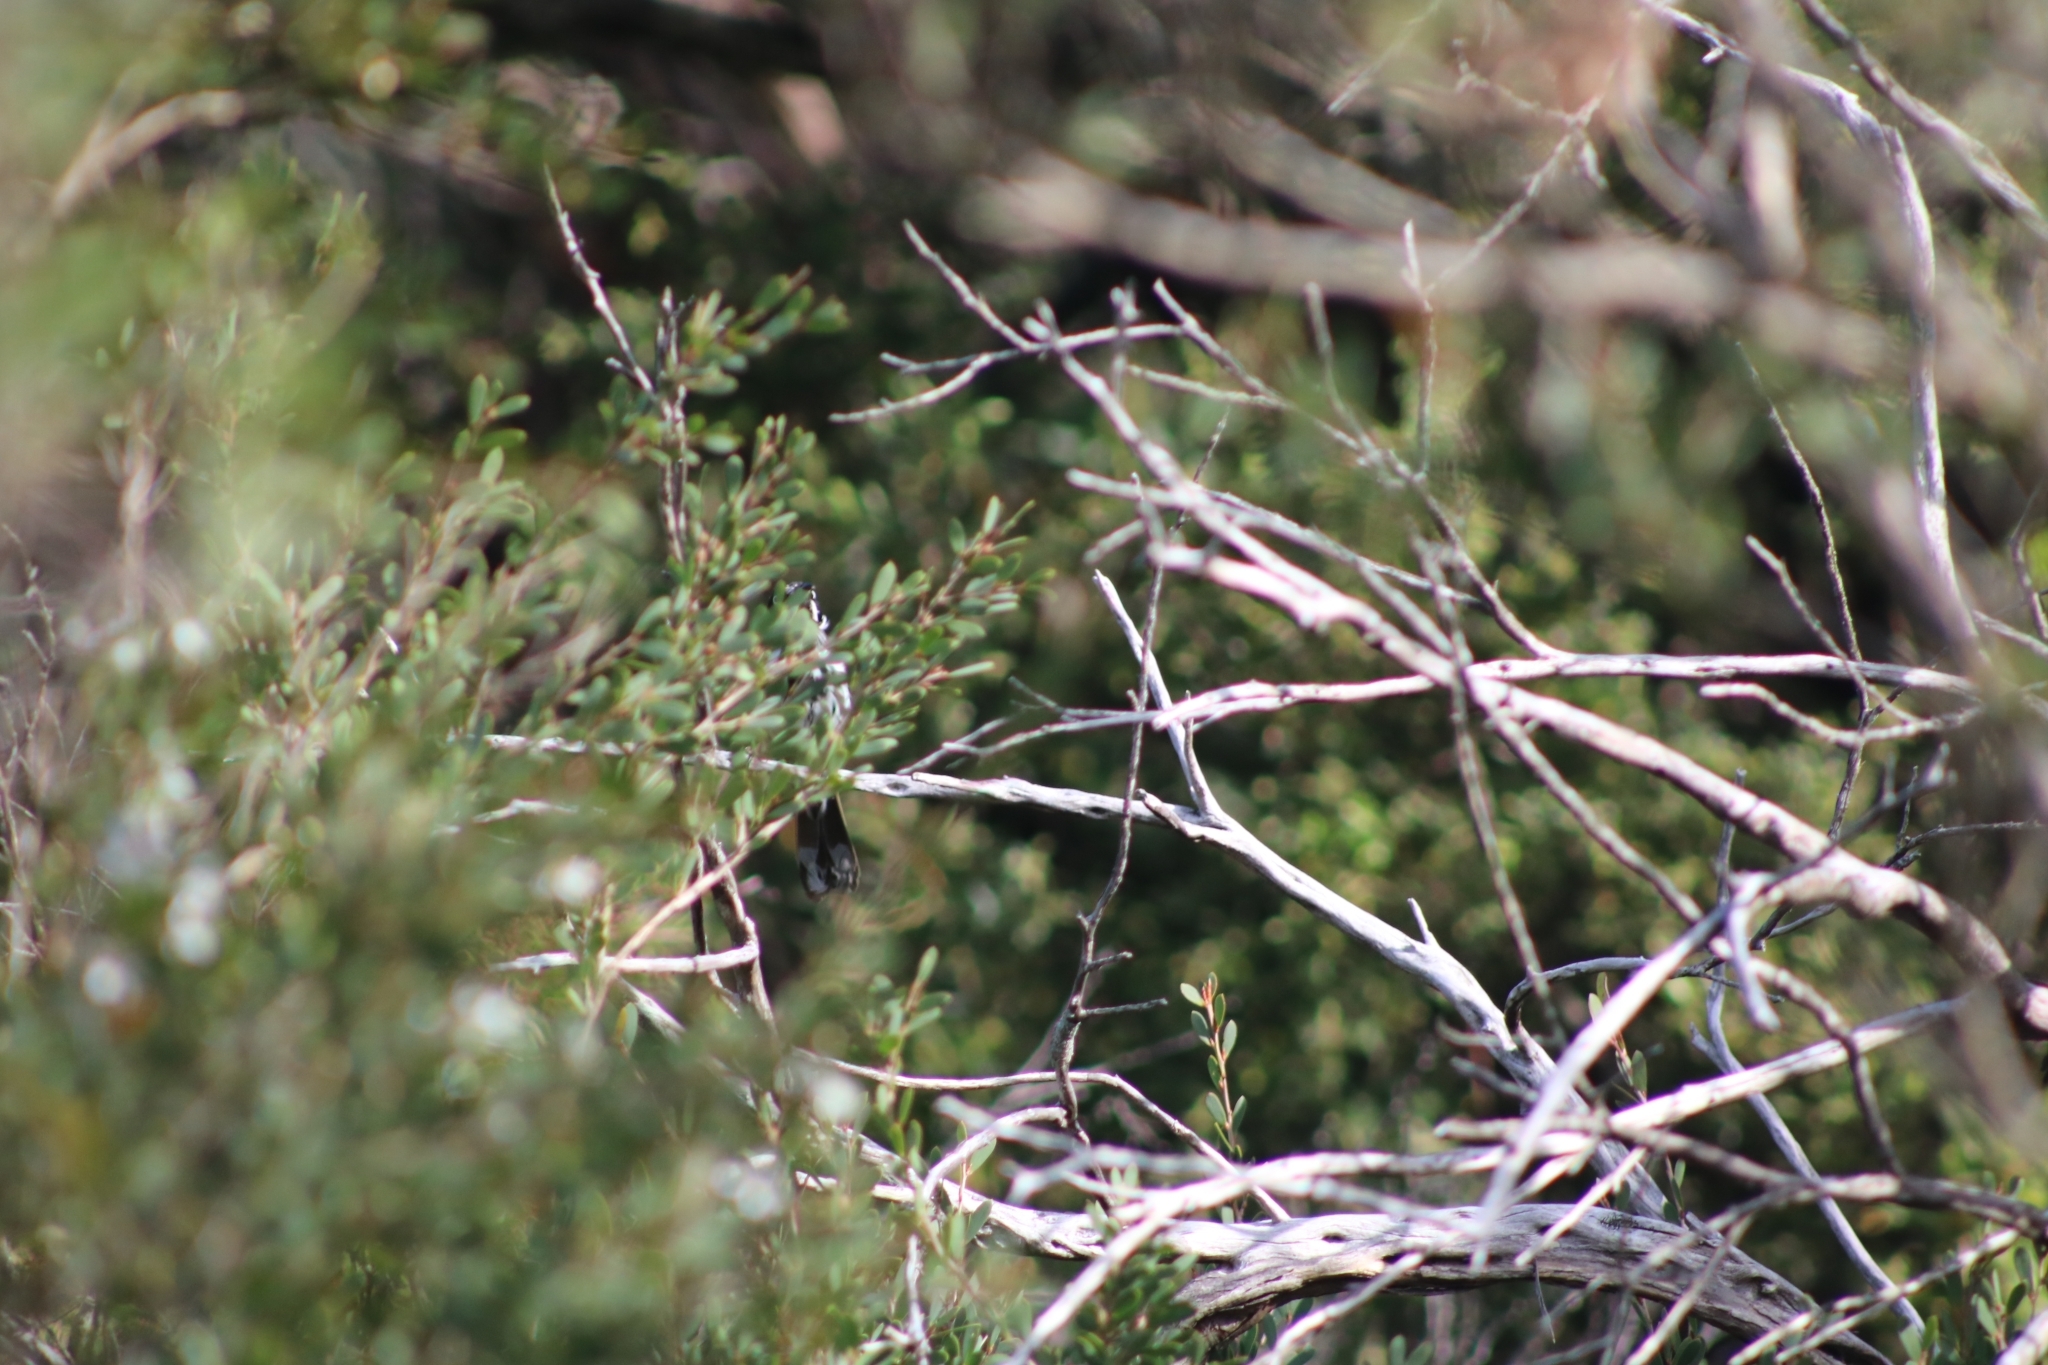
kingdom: Animalia
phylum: Chordata
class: Aves
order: Passeriformes
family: Meliphagidae
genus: Phylidonyris
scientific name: Phylidonyris novaehollandiae
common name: New holland honeyeater
